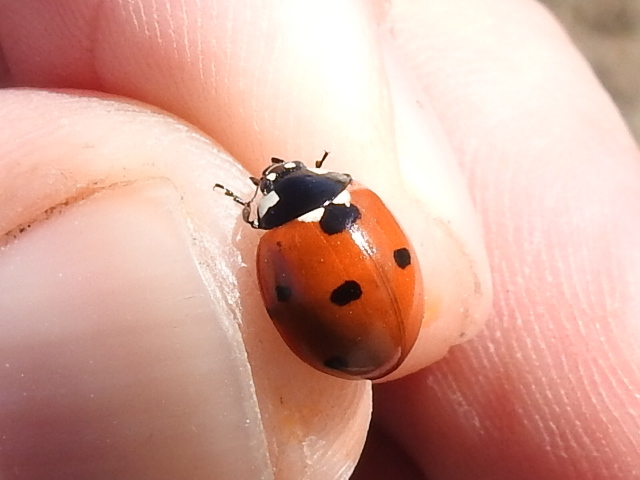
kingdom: Animalia
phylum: Arthropoda
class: Insecta
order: Coleoptera
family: Coccinellidae
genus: Coccinella
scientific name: Coccinella septempunctata
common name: Sevenspotted lady beetle
